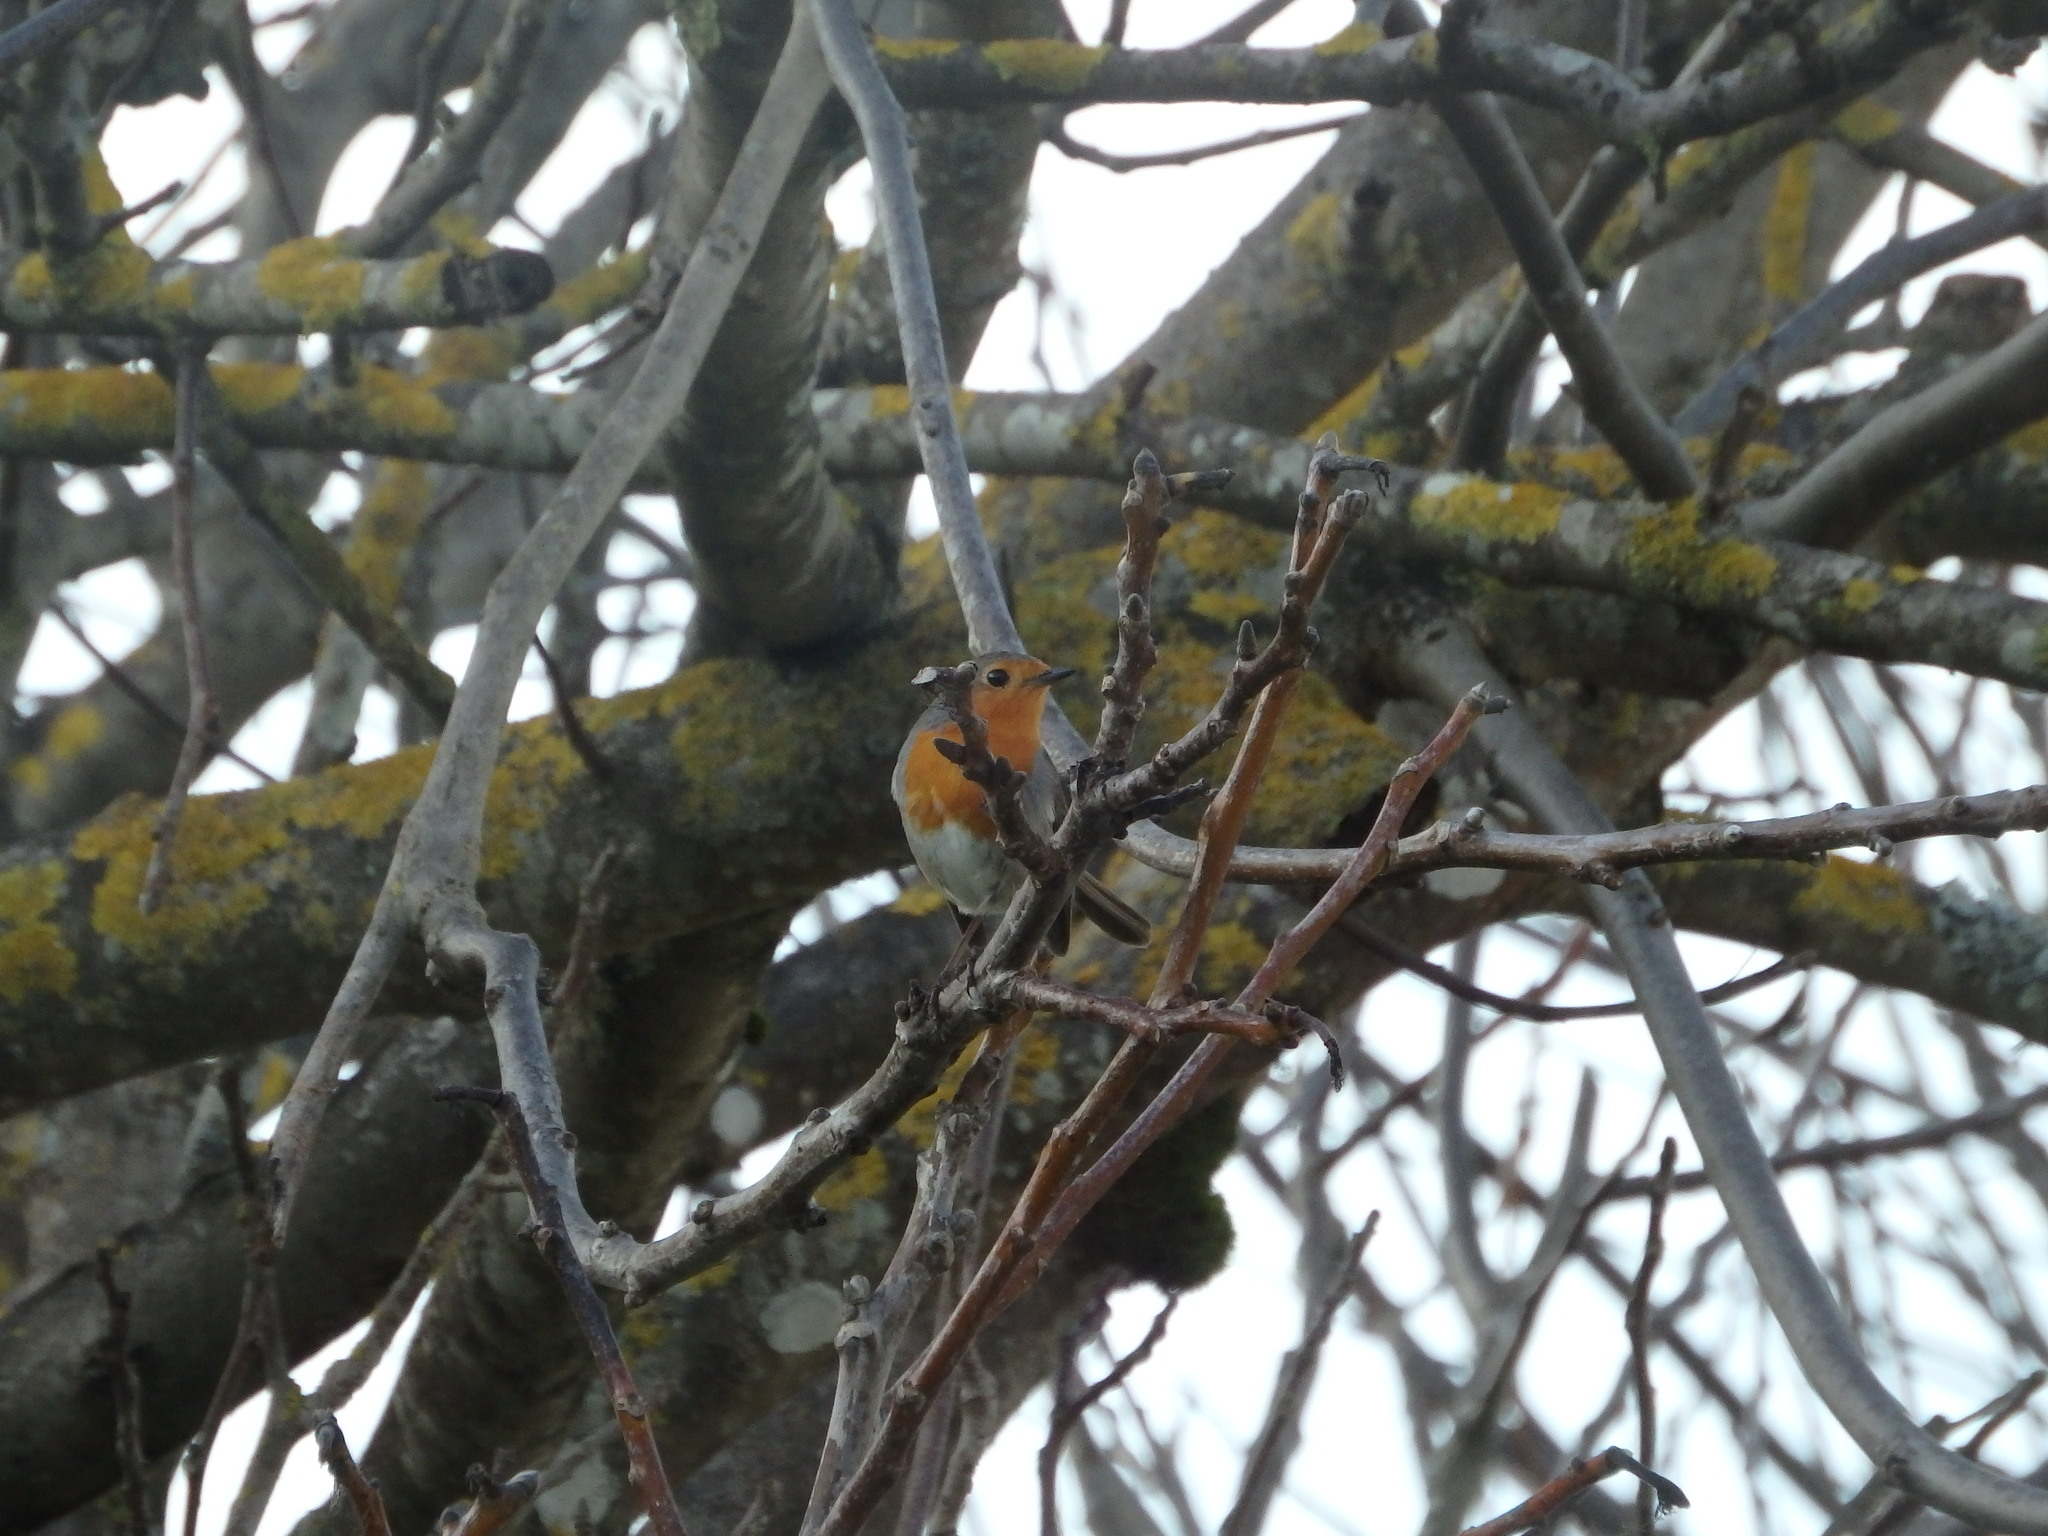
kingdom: Animalia
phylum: Chordata
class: Aves
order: Passeriformes
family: Muscicapidae
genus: Erithacus
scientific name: Erithacus rubecula
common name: European robin
